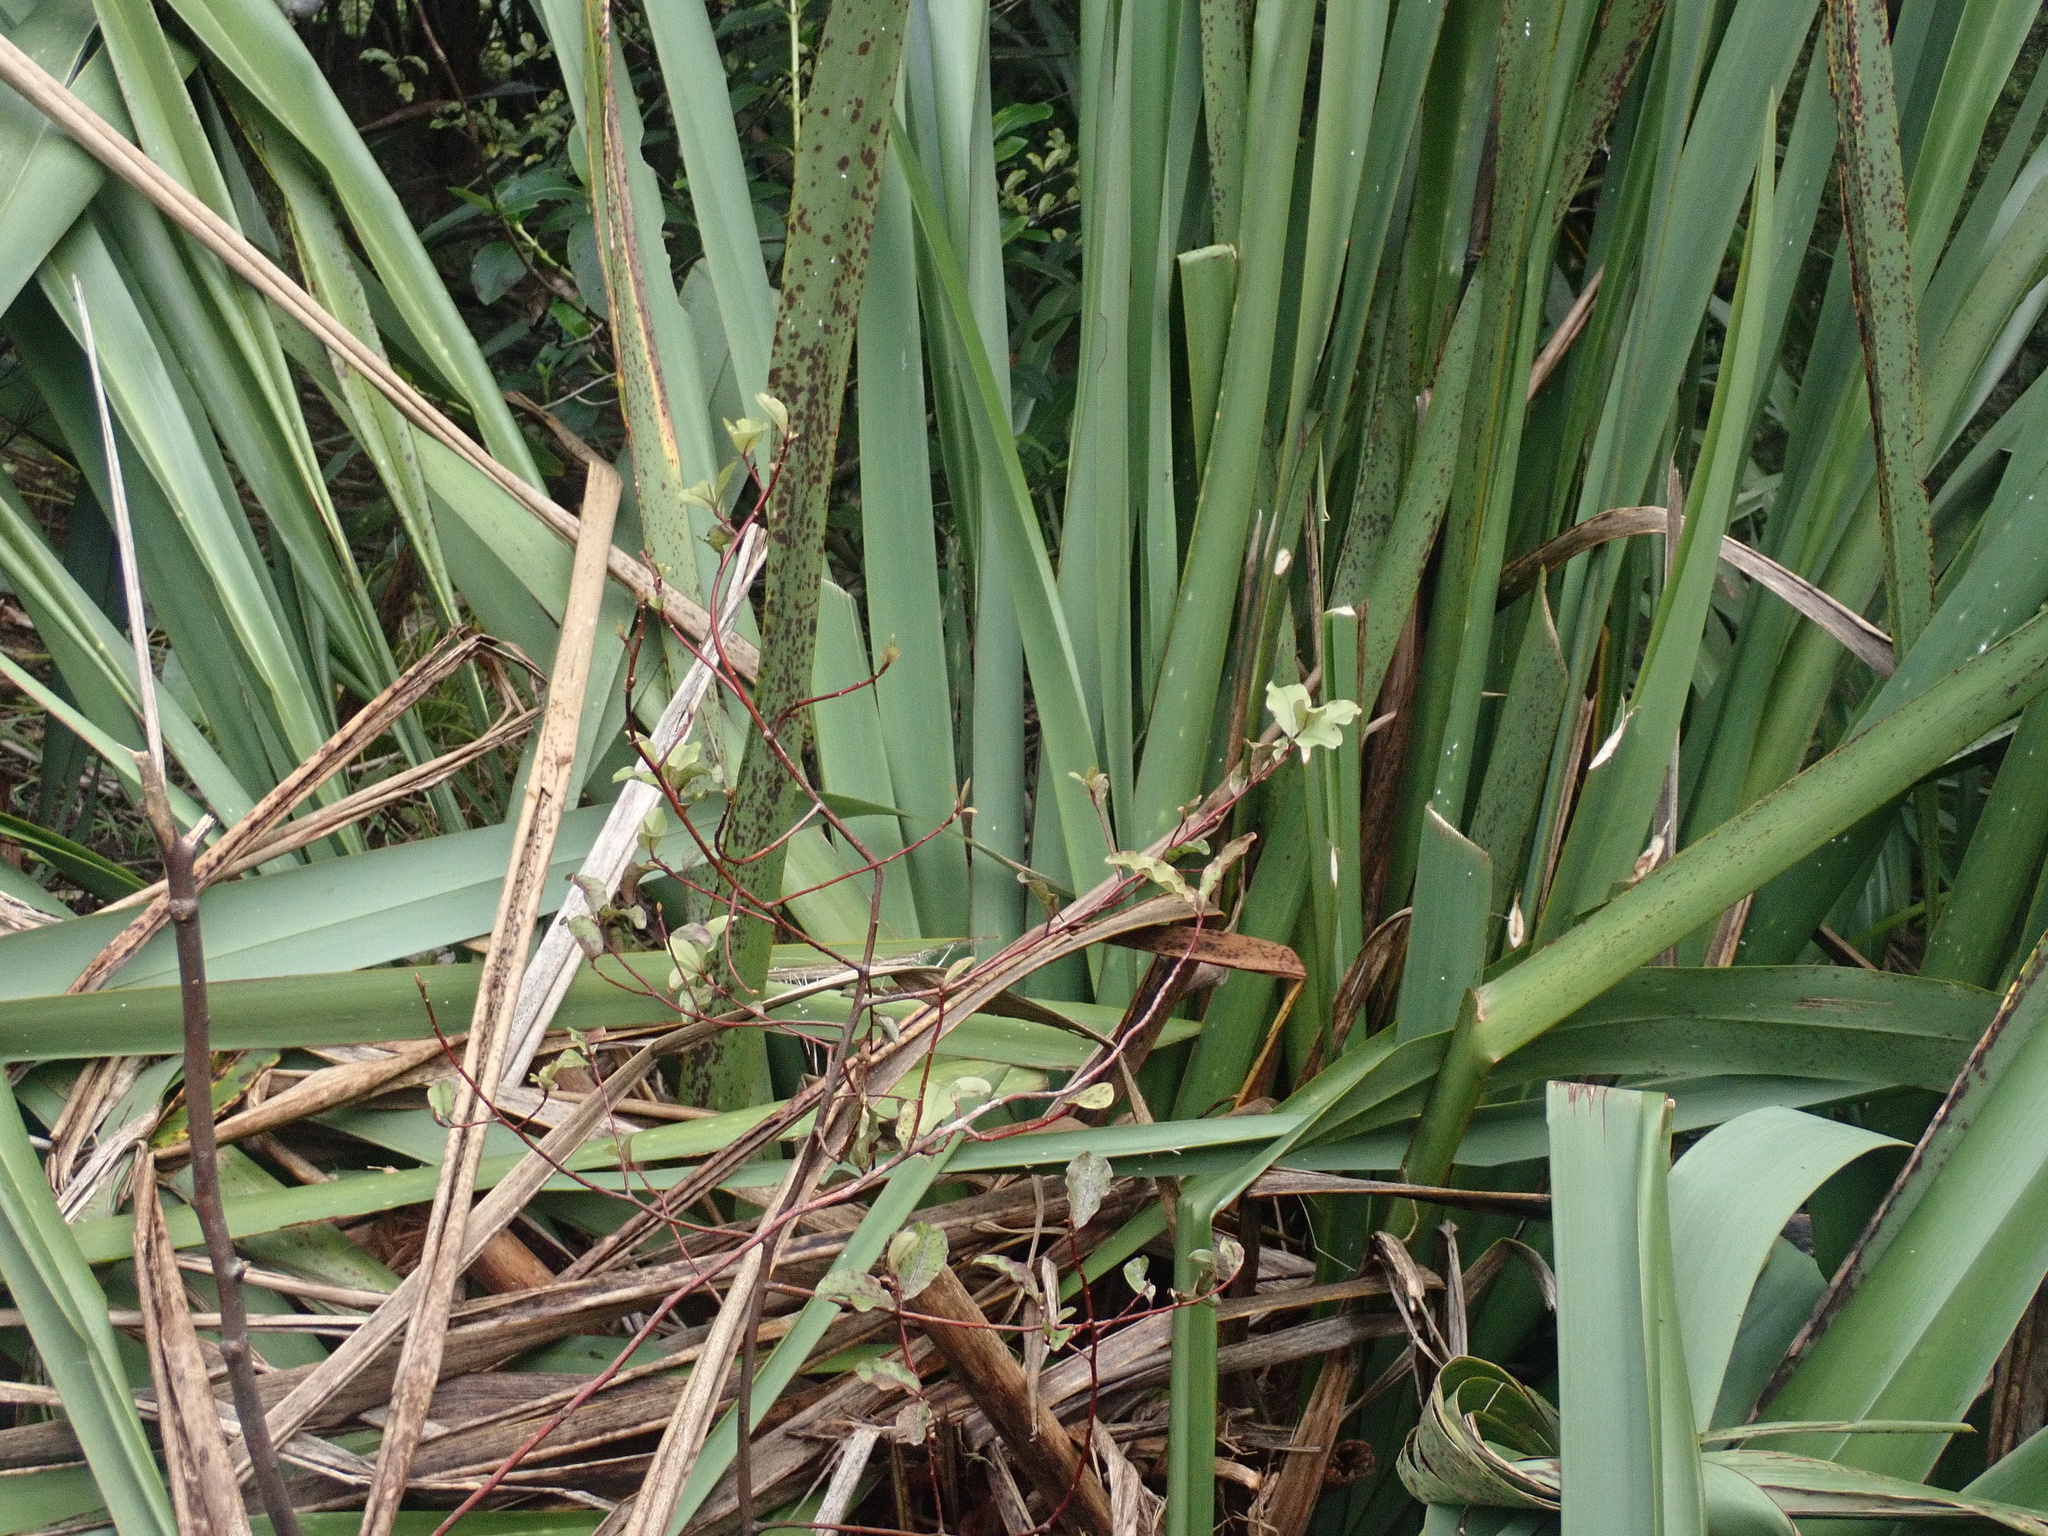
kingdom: Plantae
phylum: Tracheophyta
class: Magnoliopsida
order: Ericales
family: Primulaceae
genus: Myrsine
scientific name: Myrsine australis
